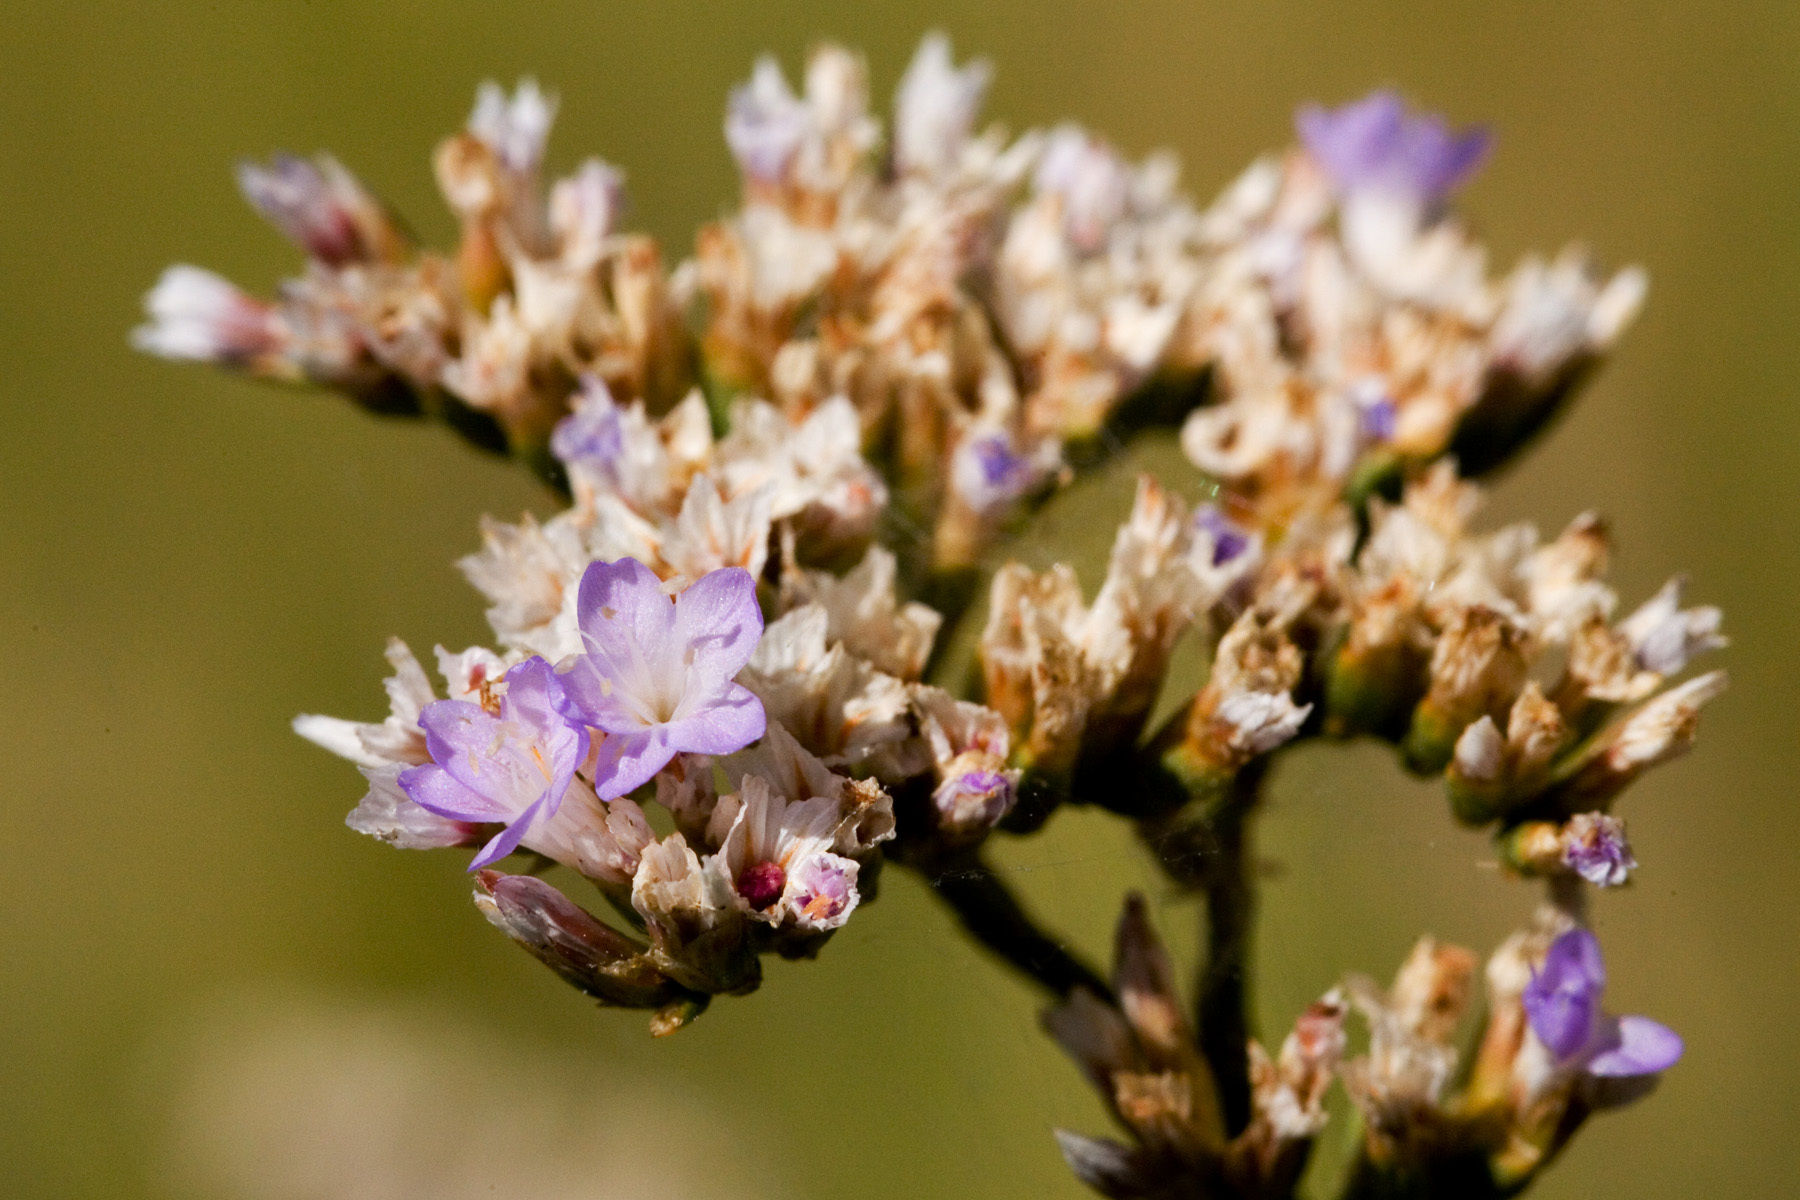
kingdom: Plantae
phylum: Tracheophyta
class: Magnoliopsida
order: Caryophyllales
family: Plumbaginaceae
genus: Limonium
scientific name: Limonium limbatum
